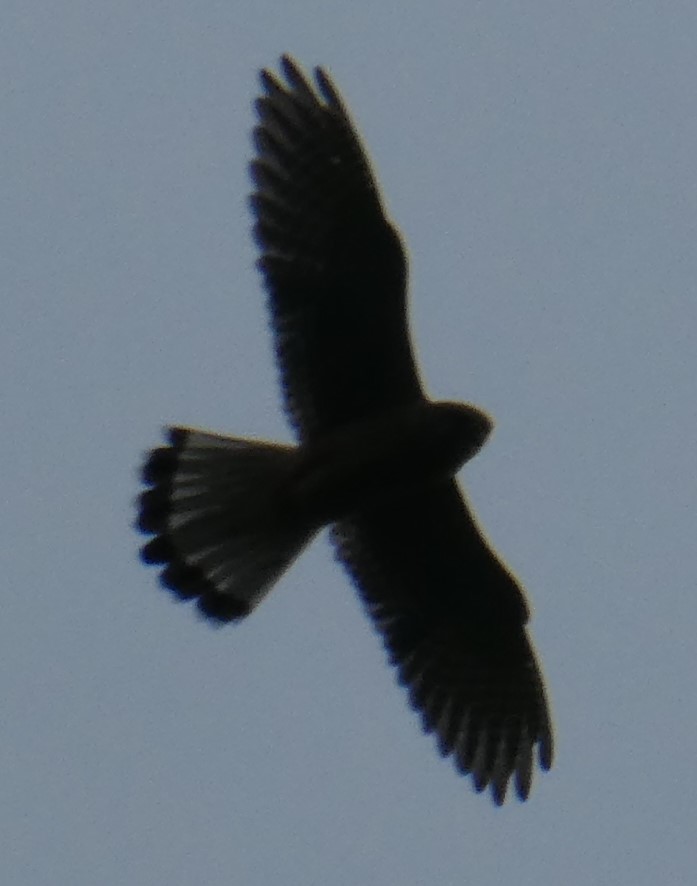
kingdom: Animalia
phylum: Chordata
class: Aves
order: Falconiformes
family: Falconidae
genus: Falco
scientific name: Falco tinnunculus
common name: Common kestrel
